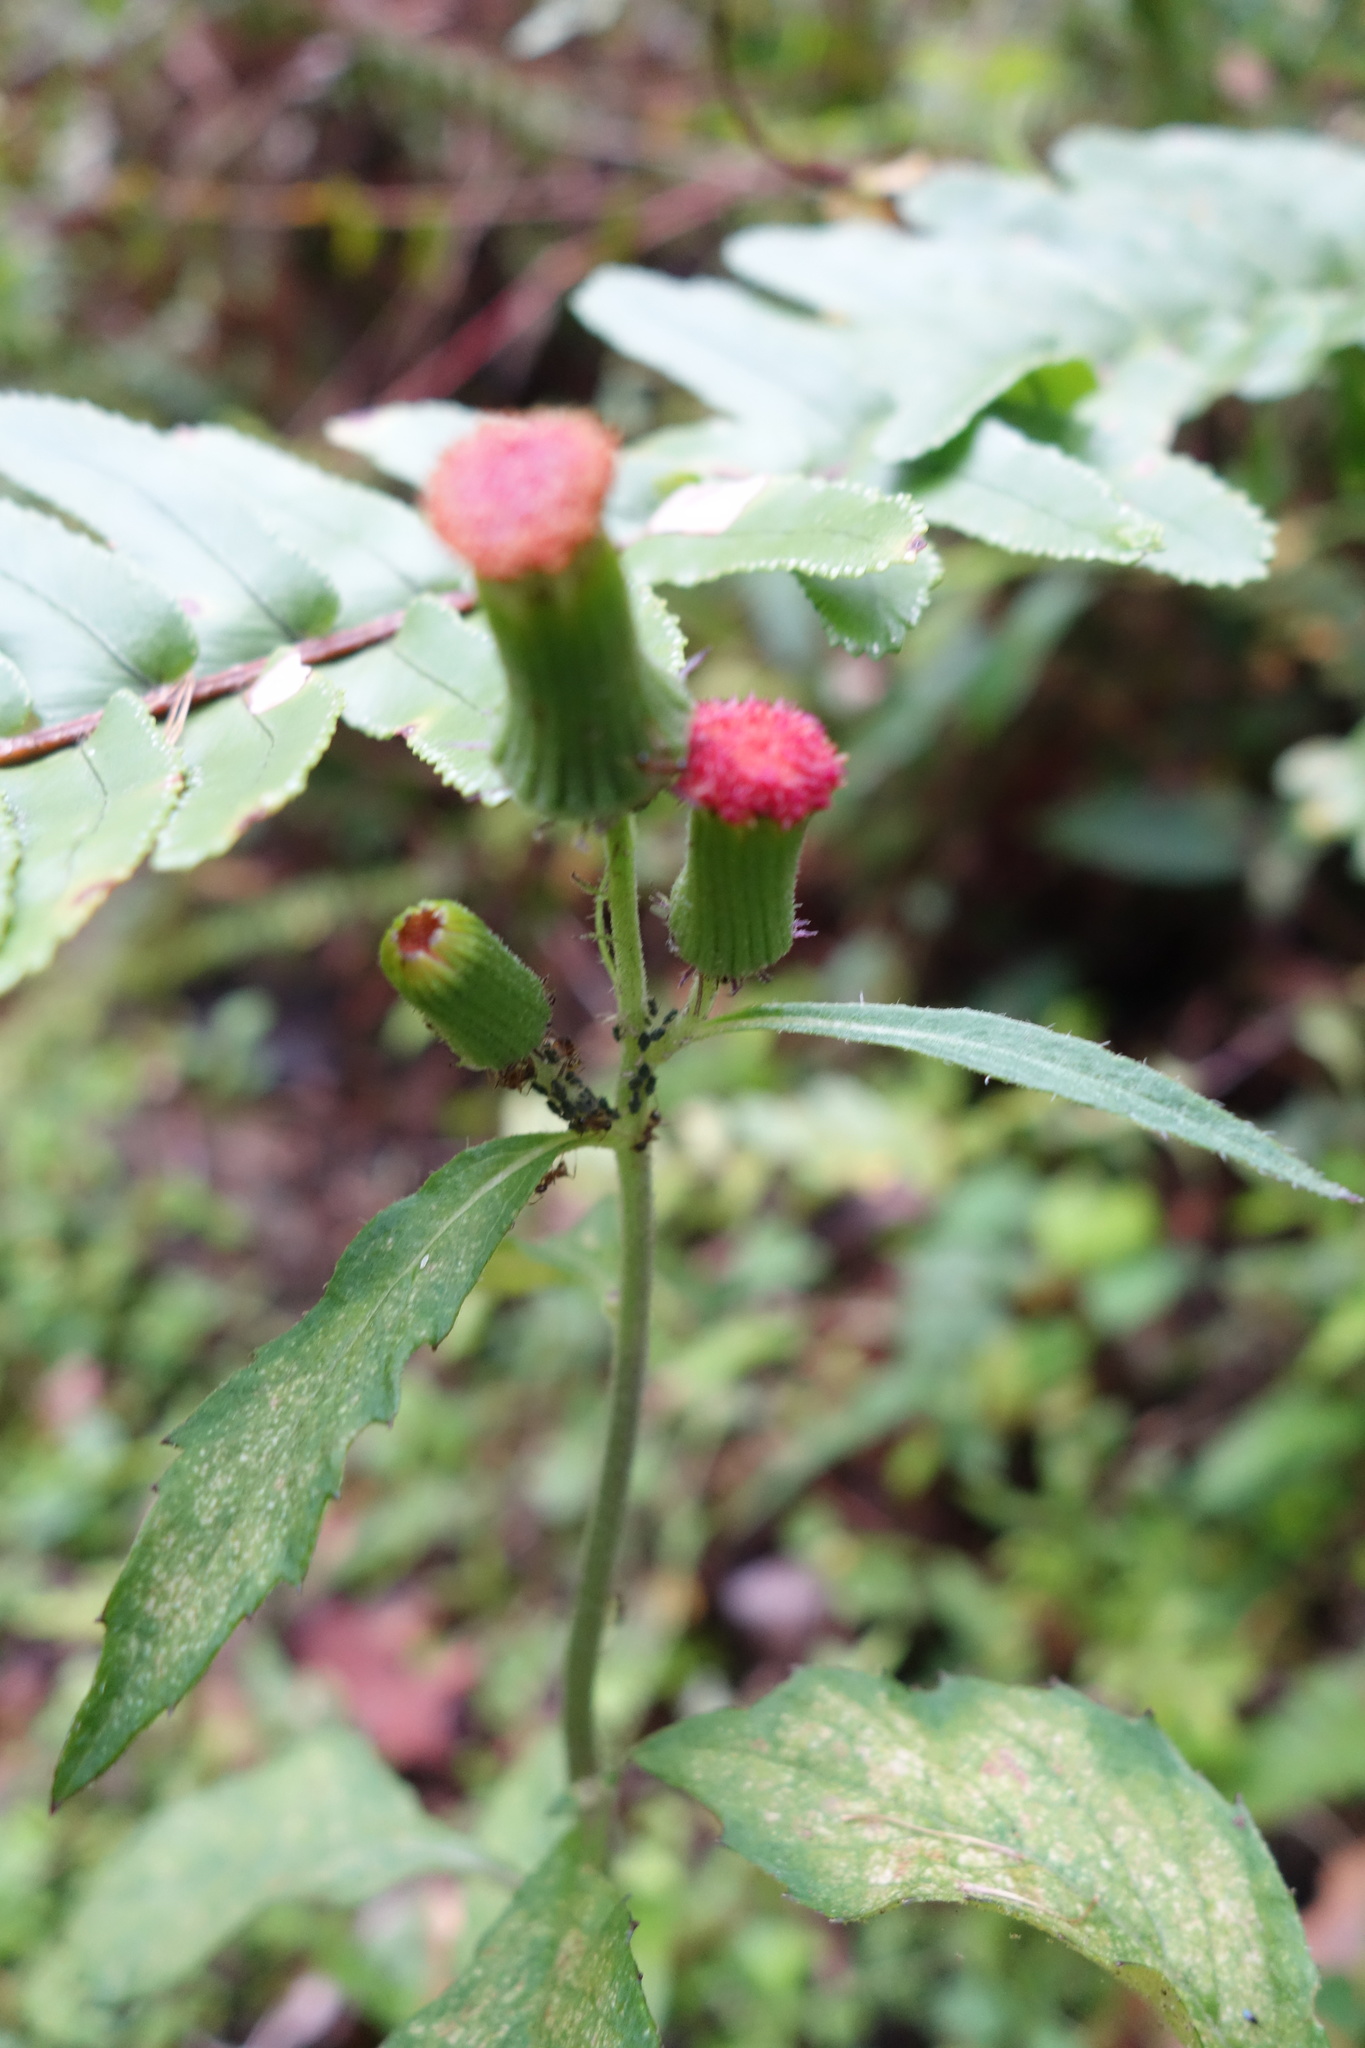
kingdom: Plantae
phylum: Tracheophyta
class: Magnoliopsida
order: Asterales
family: Asteraceae
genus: Crassocephalum
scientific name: Crassocephalum crepidioides
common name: Redflower ragleaf
